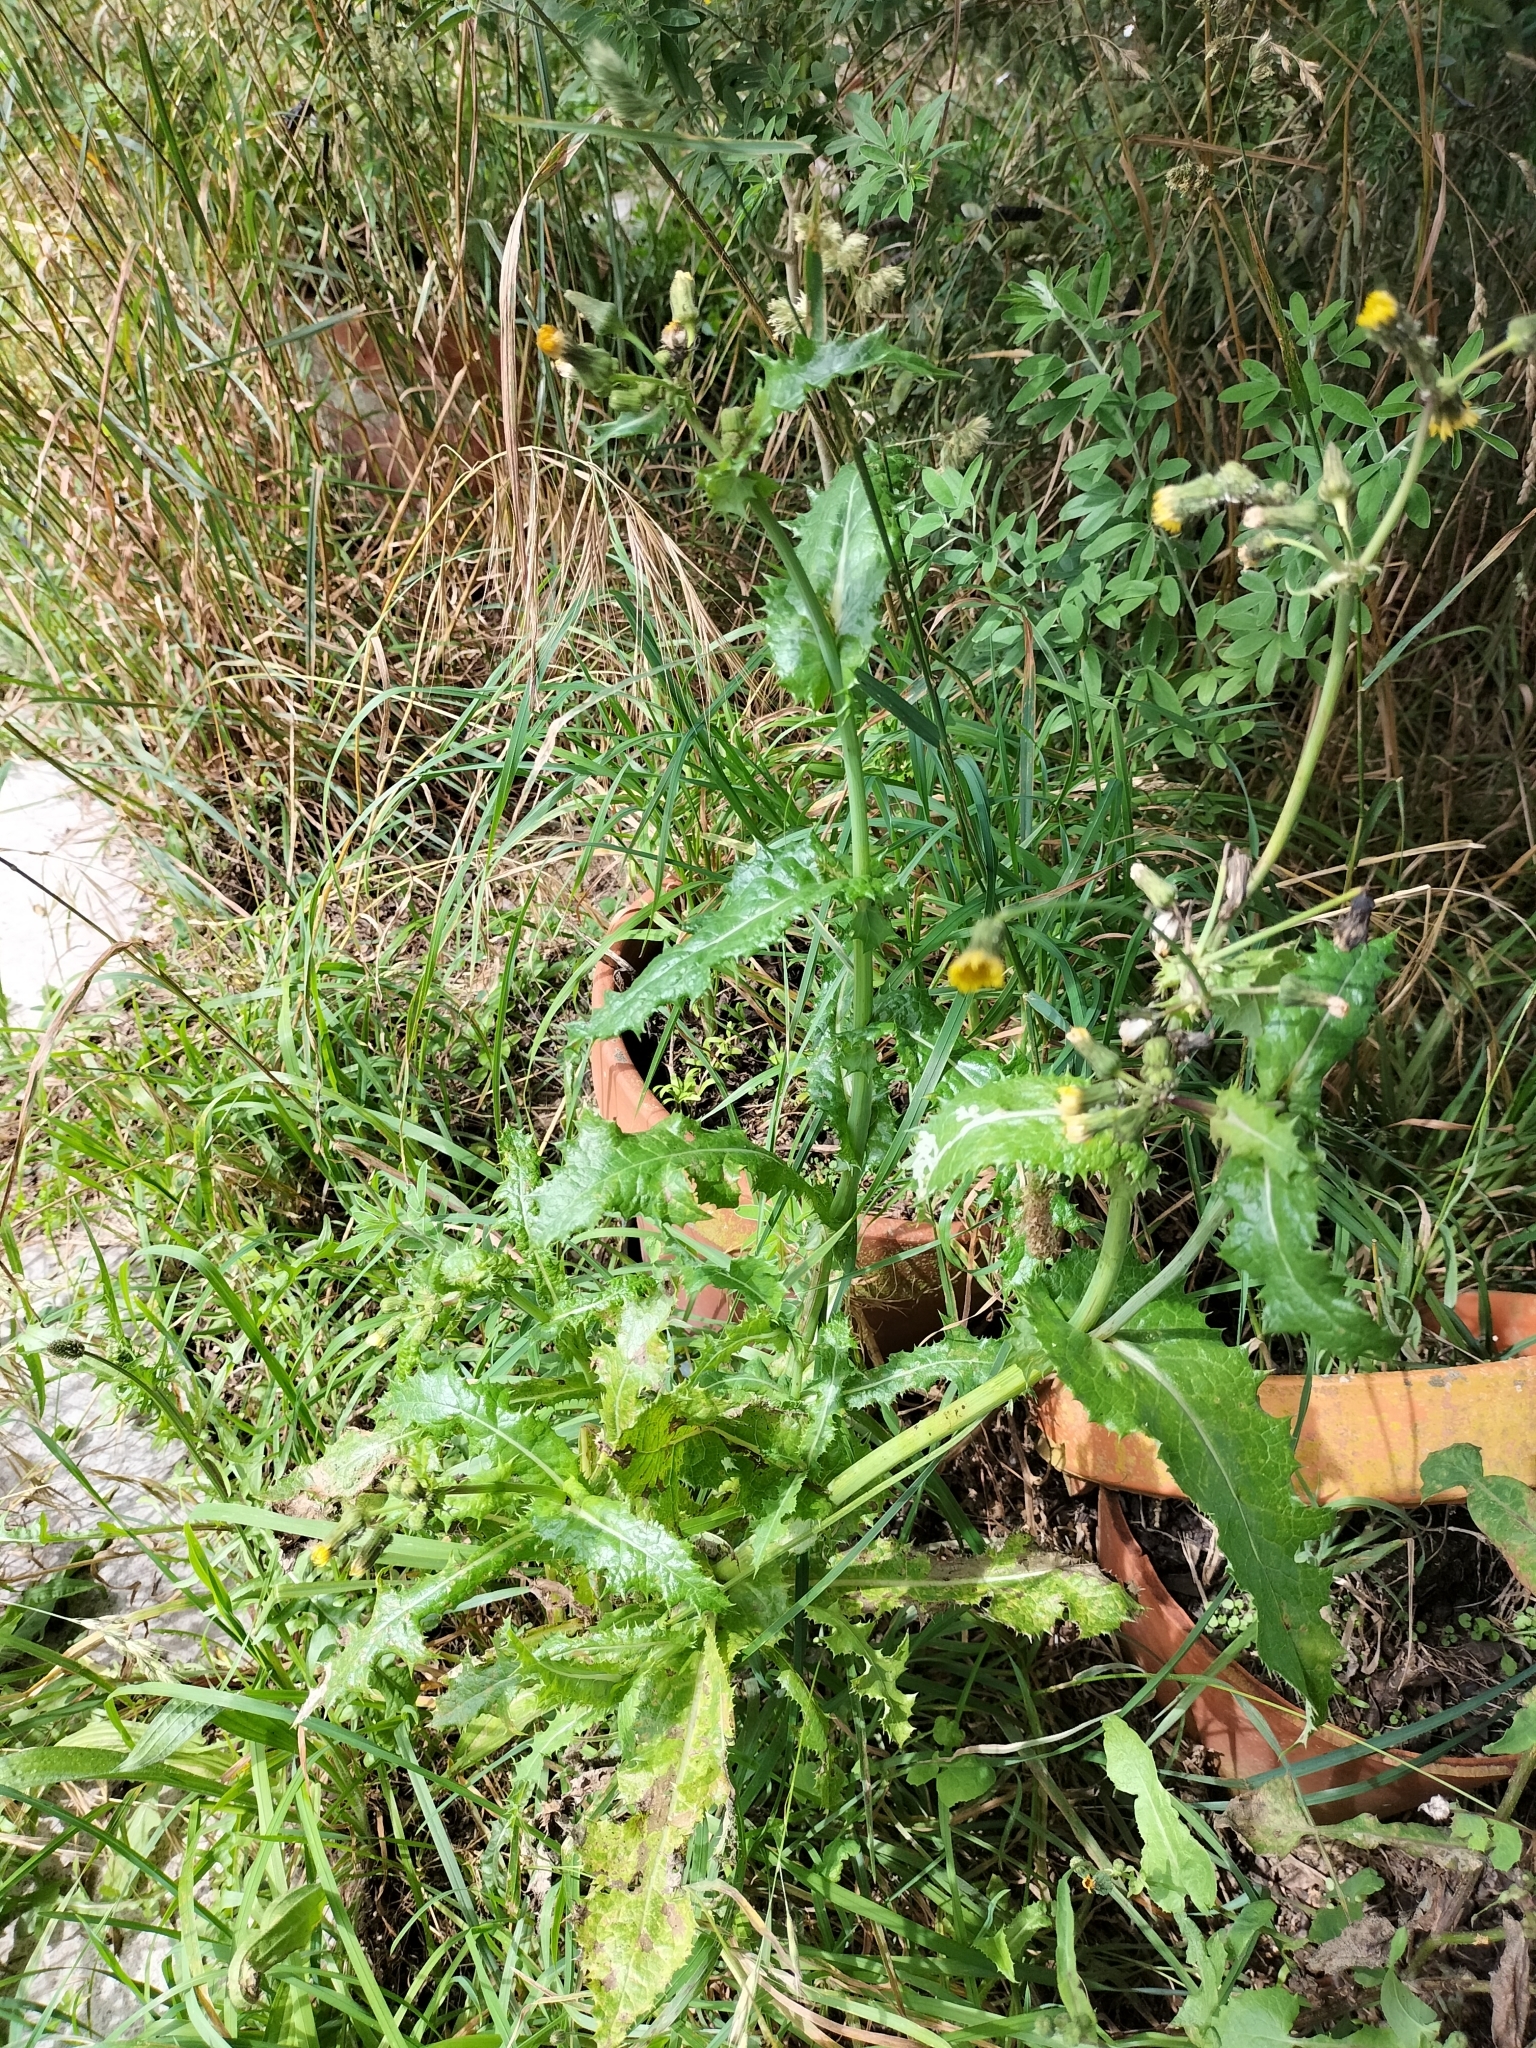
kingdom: Plantae
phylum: Tracheophyta
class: Magnoliopsida
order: Asterales
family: Asteraceae
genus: Sonchus
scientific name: Sonchus asper
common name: Prickly sow-thistle
